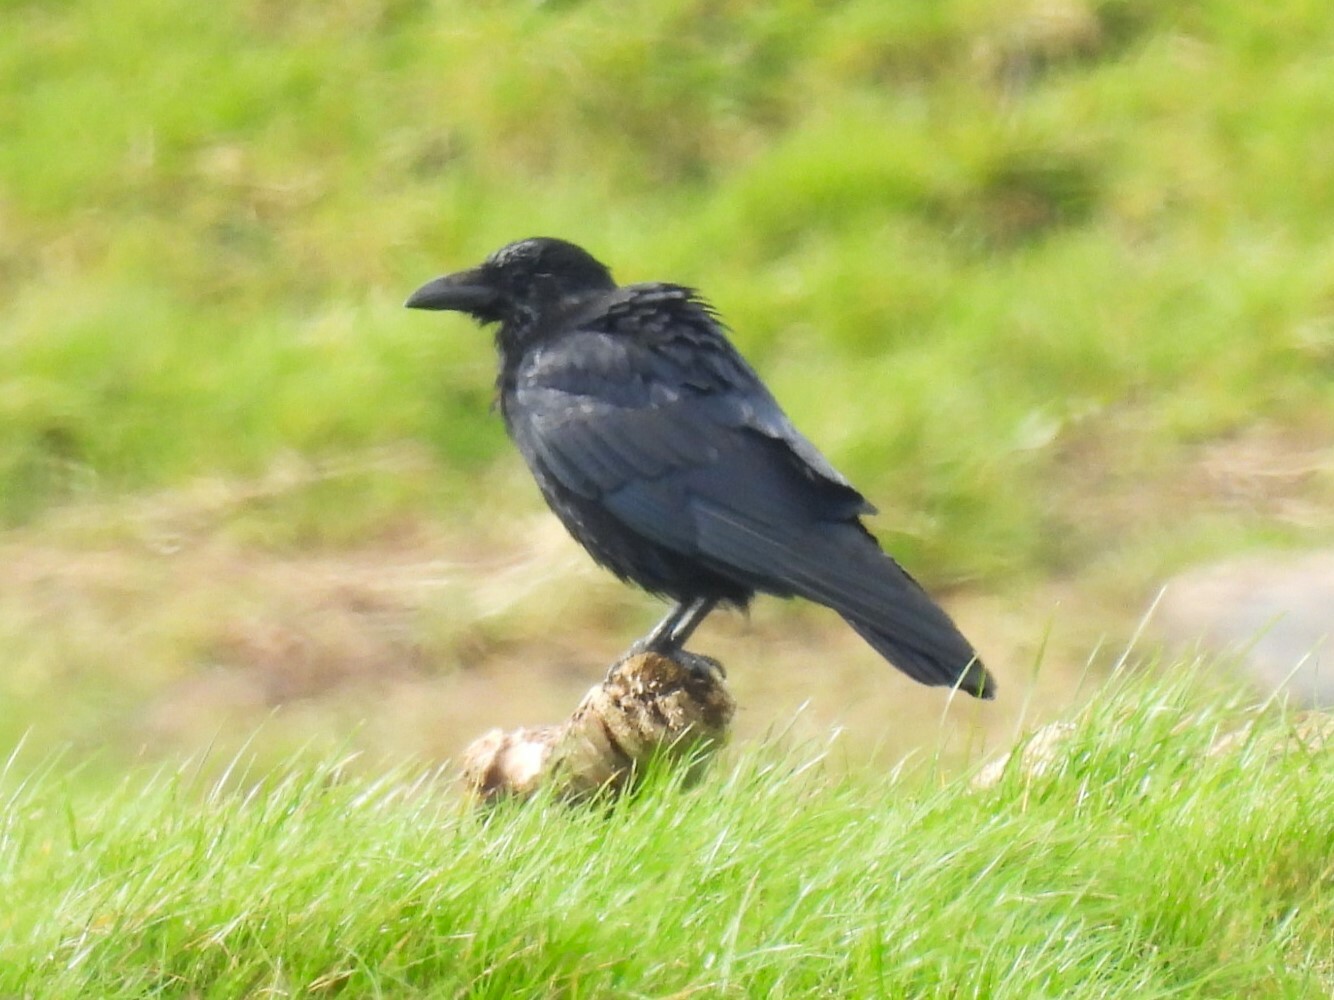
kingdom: Animalia
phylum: Chordata
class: Aves
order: Passeriformes
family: Corvidae
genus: Corvus
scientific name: Corvus corone
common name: Carrion crow
